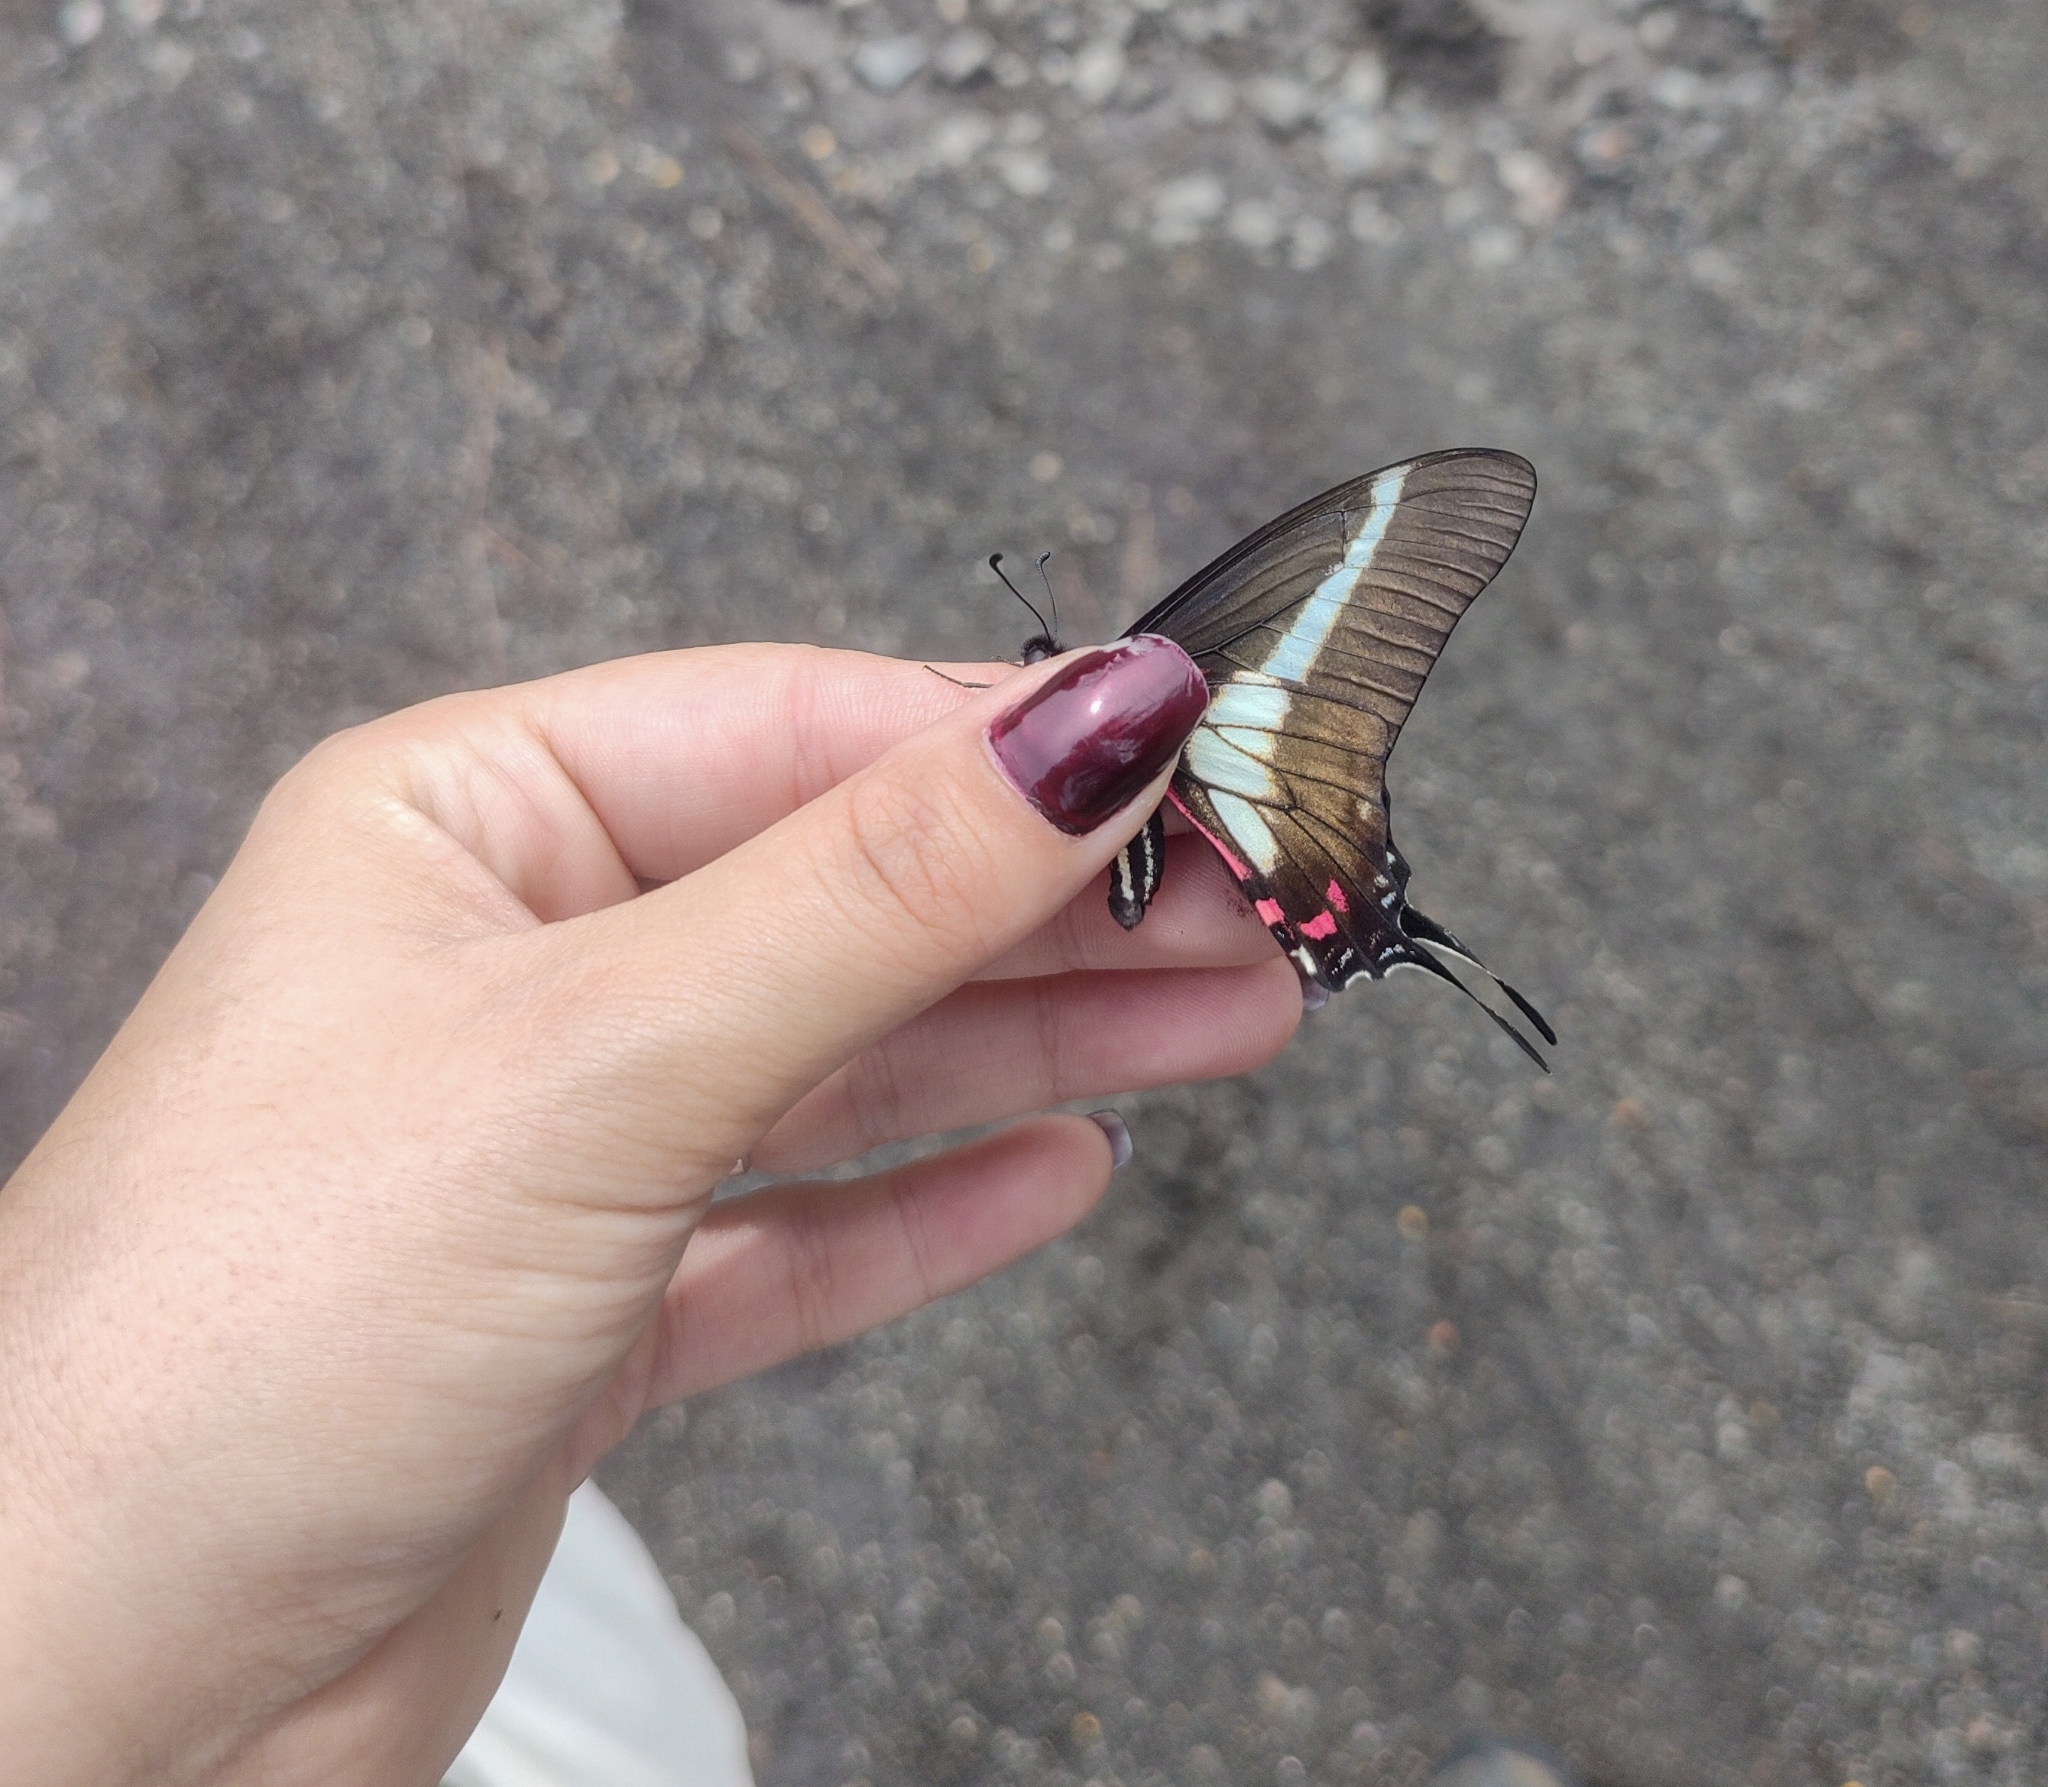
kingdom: Animalia
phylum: Arthropoda
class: Insecta
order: Lepidoptera
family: Papilionidae
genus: Protographium
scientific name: Protographium asius
